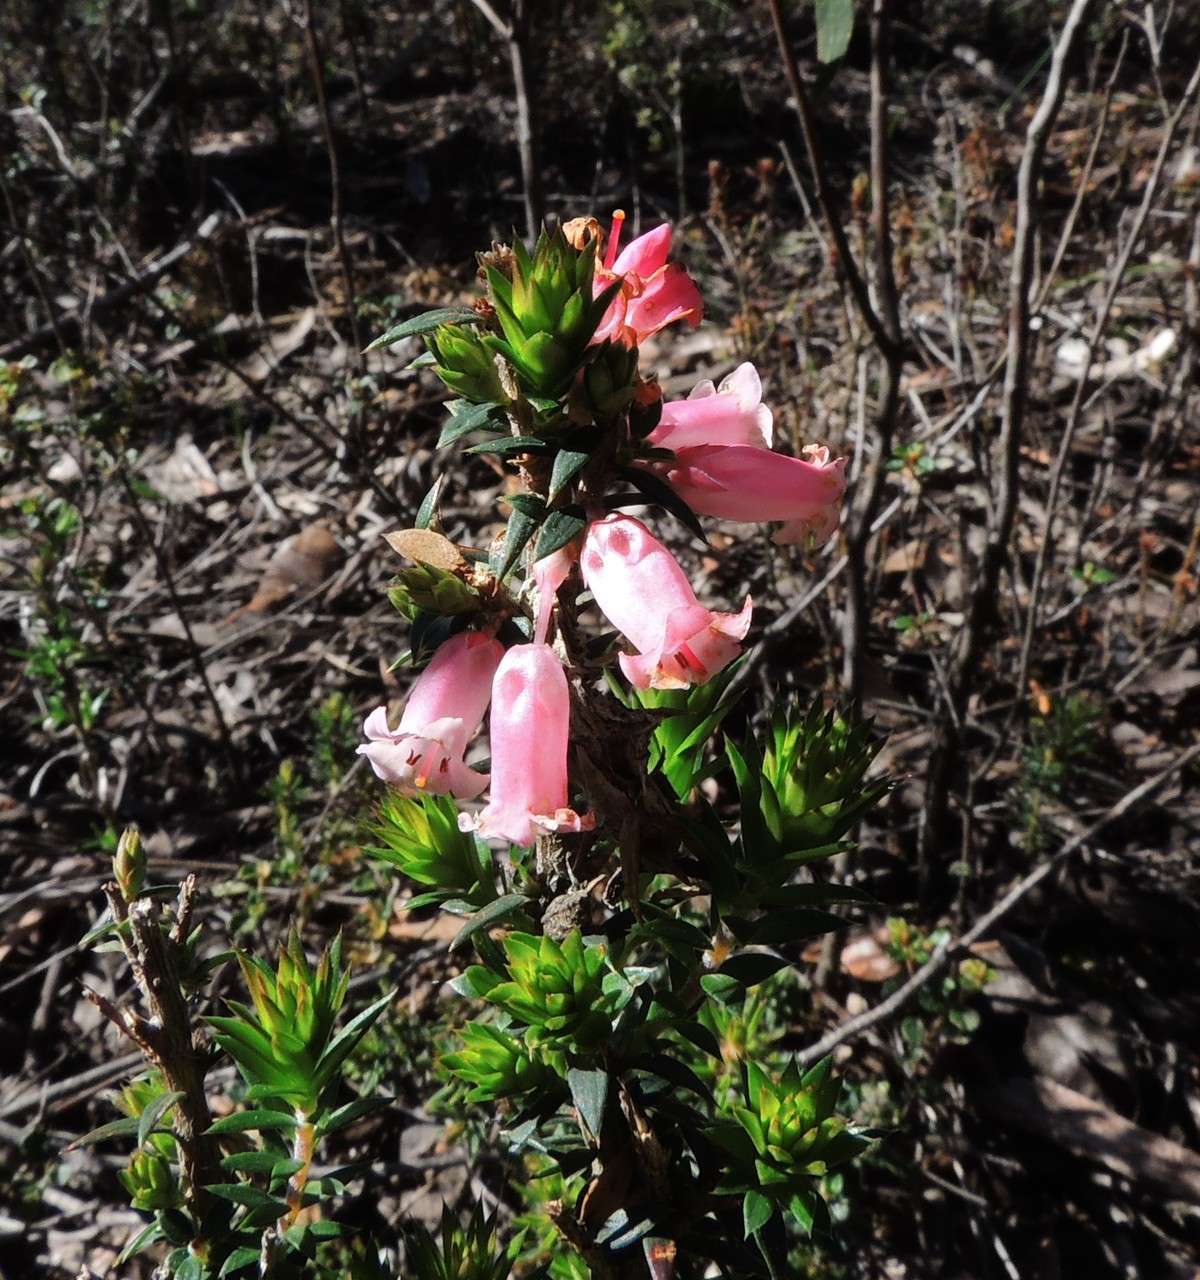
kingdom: Plantae
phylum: Tracheophyta
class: Magnoliopsida
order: Ericales
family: Ericaceae
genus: Epacris
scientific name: Epacris impressa
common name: Common-heath
